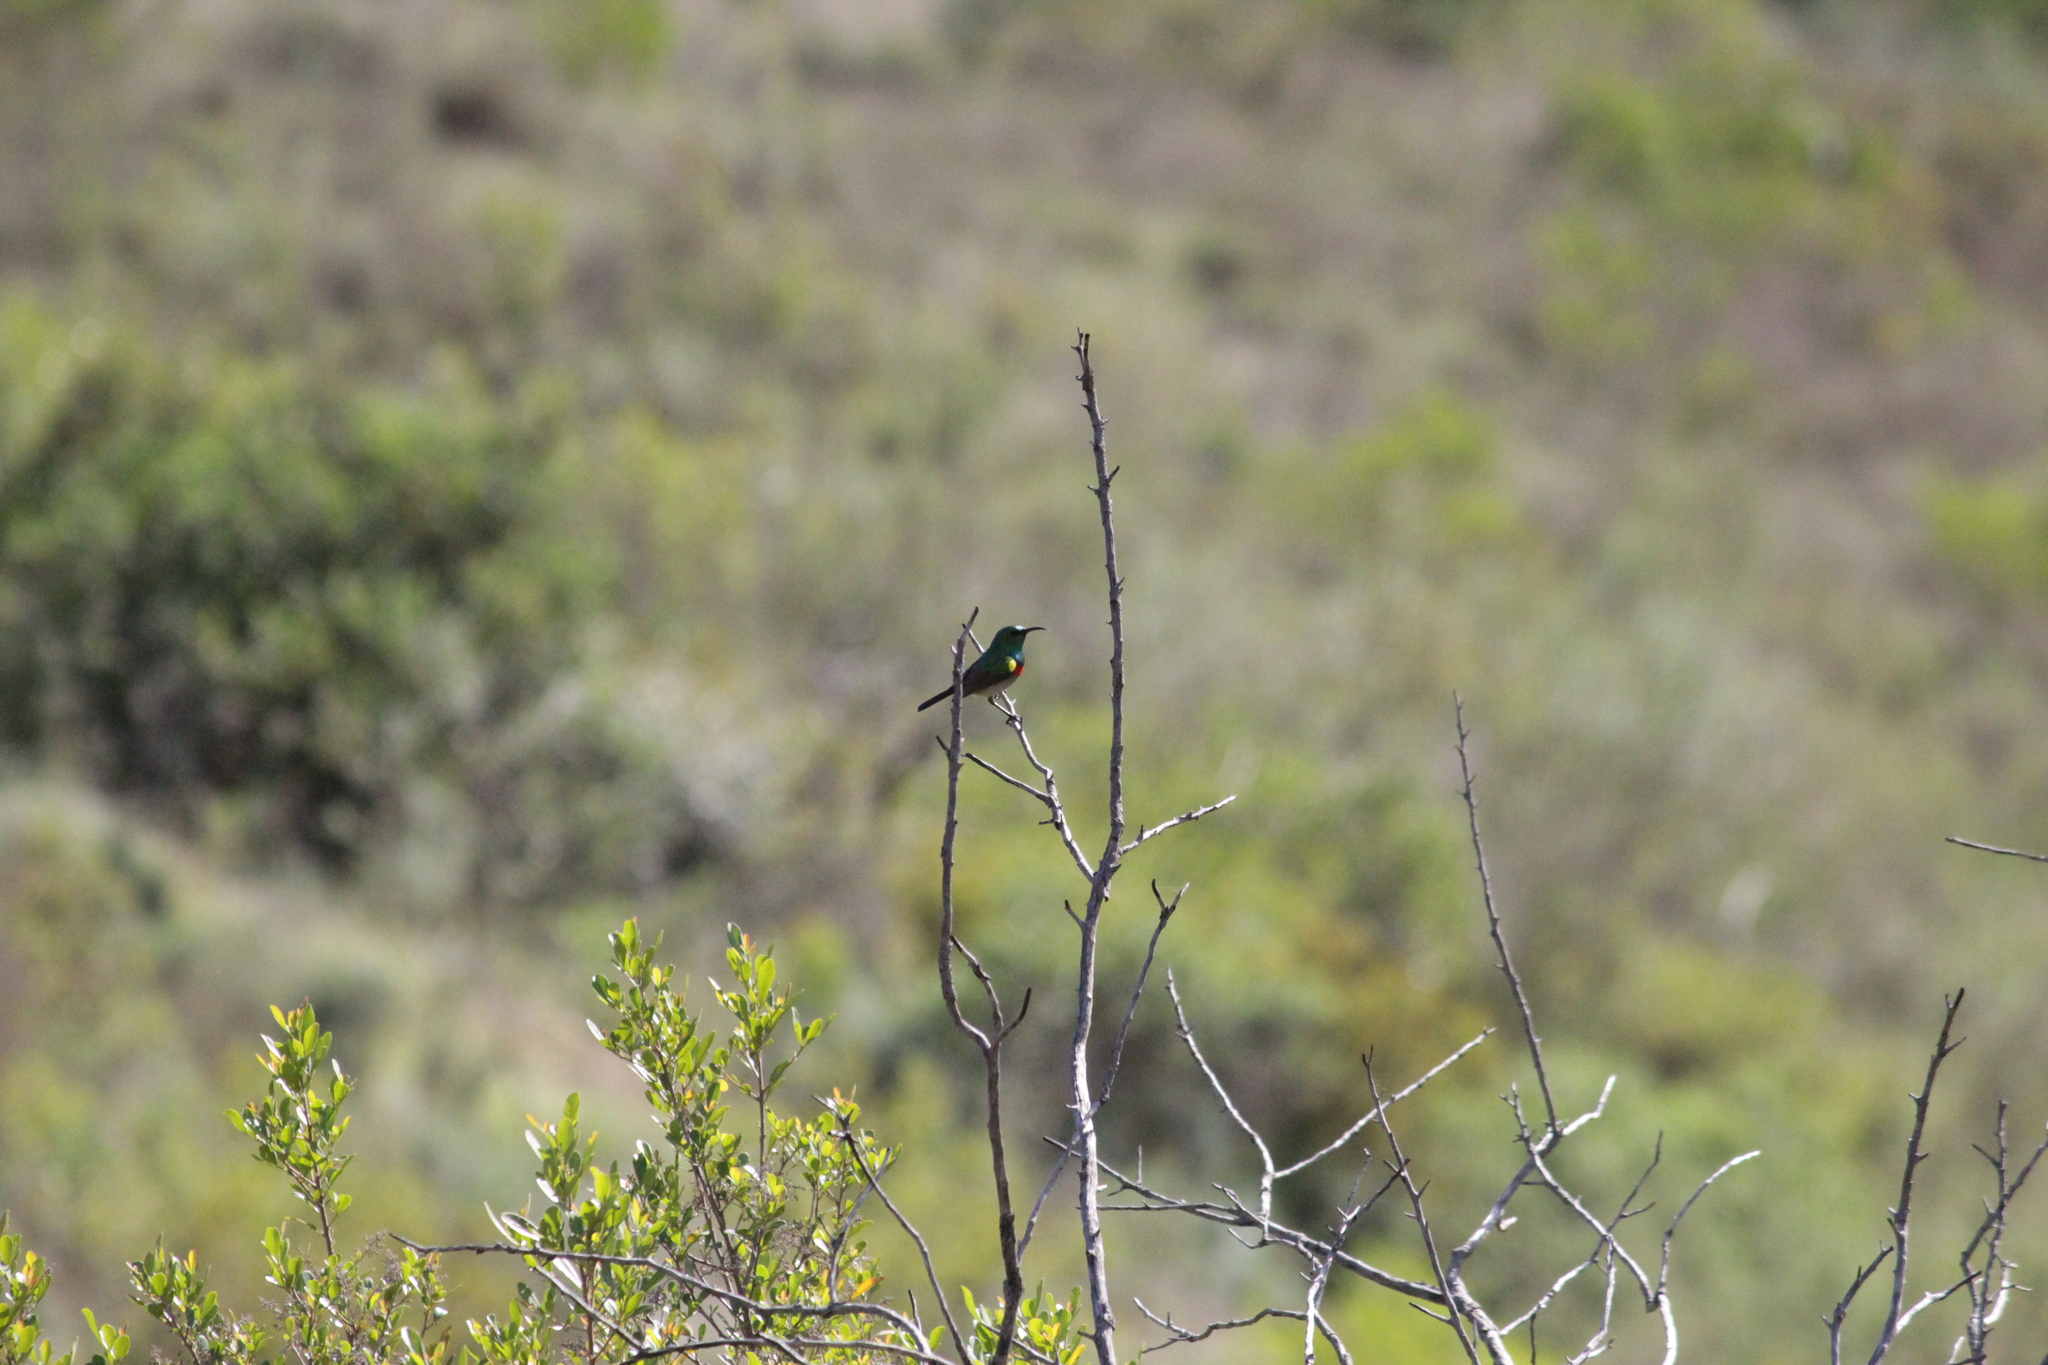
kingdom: Animalia
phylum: Chordata
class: Aves
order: Passeriformes
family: Nectariniidae
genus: Cinnyris
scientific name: Cinnyris chalybeus
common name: Southern double-collared sunbird
